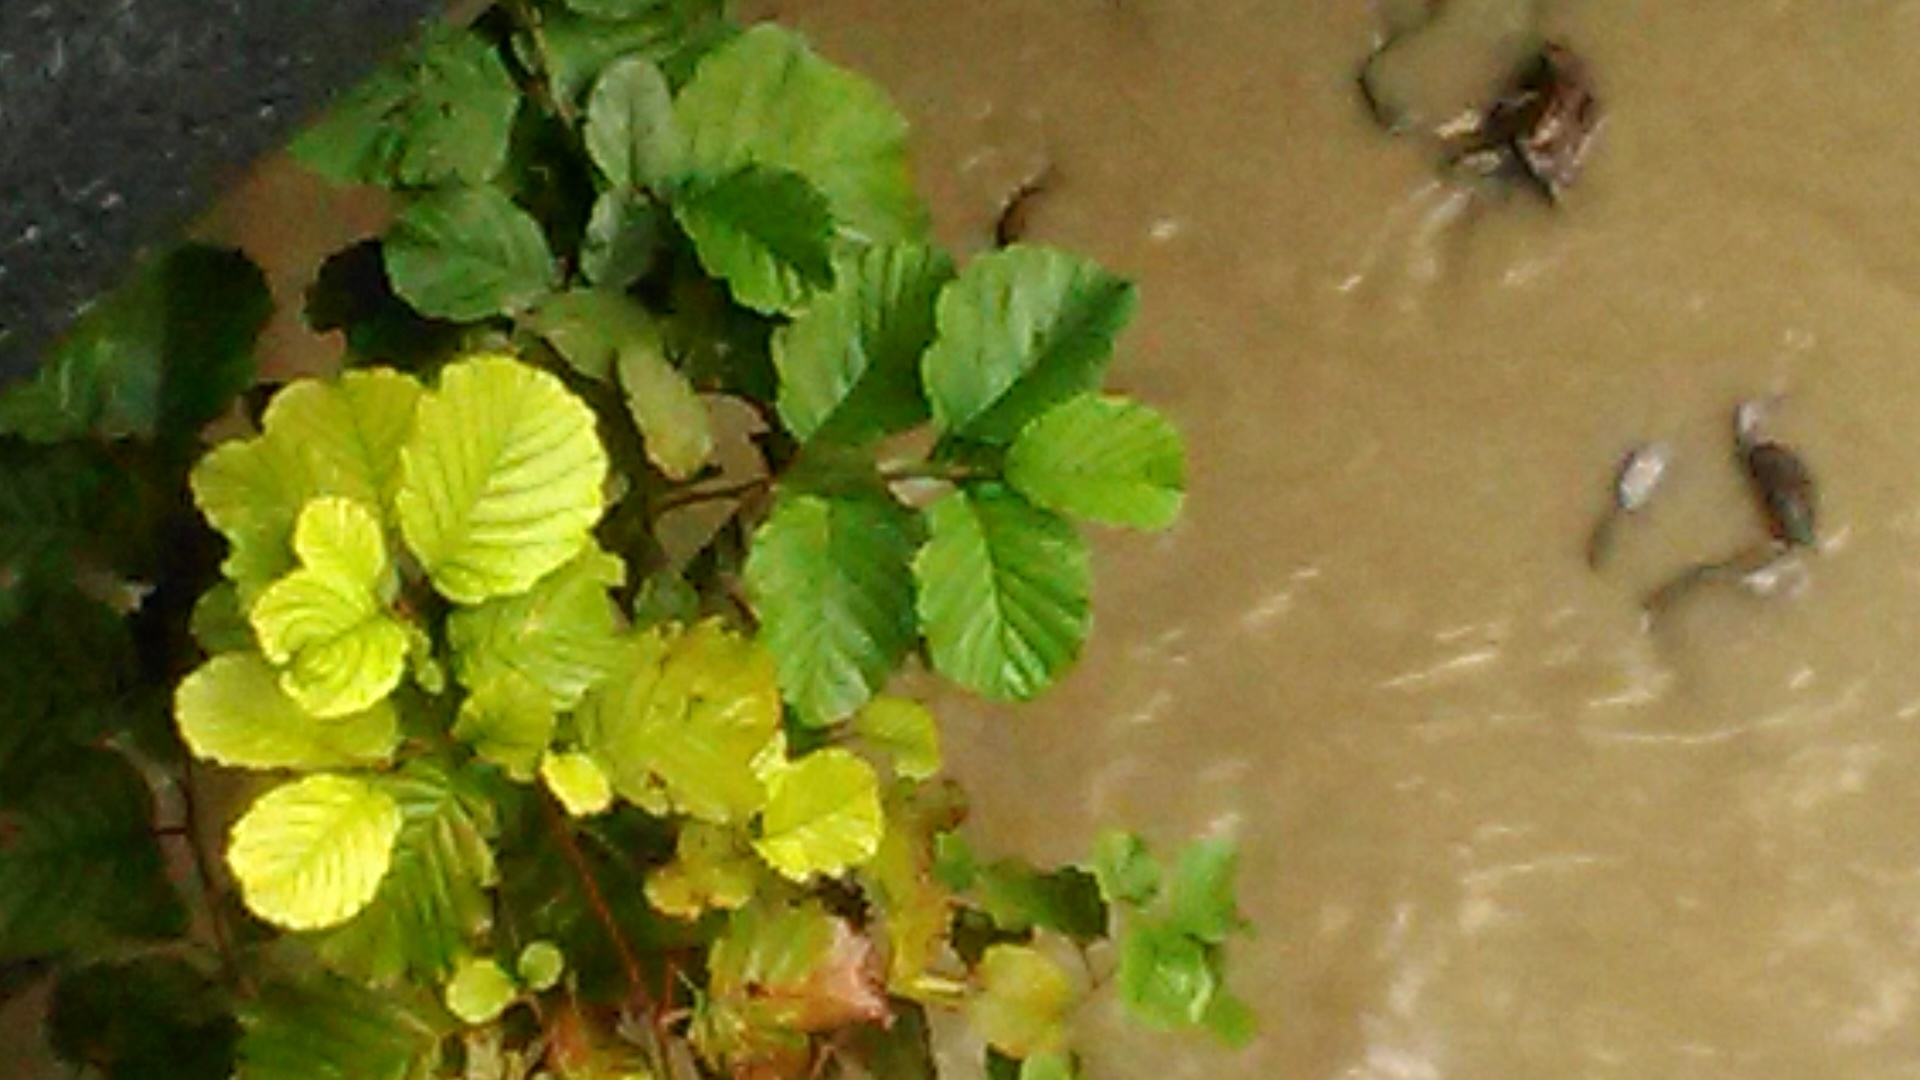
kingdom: Plantae
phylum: Tracheophyta
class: Magnoliopsida
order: Fagales
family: Betulaceae
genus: Alnus
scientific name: Alnus glutinosa
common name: Black alder
